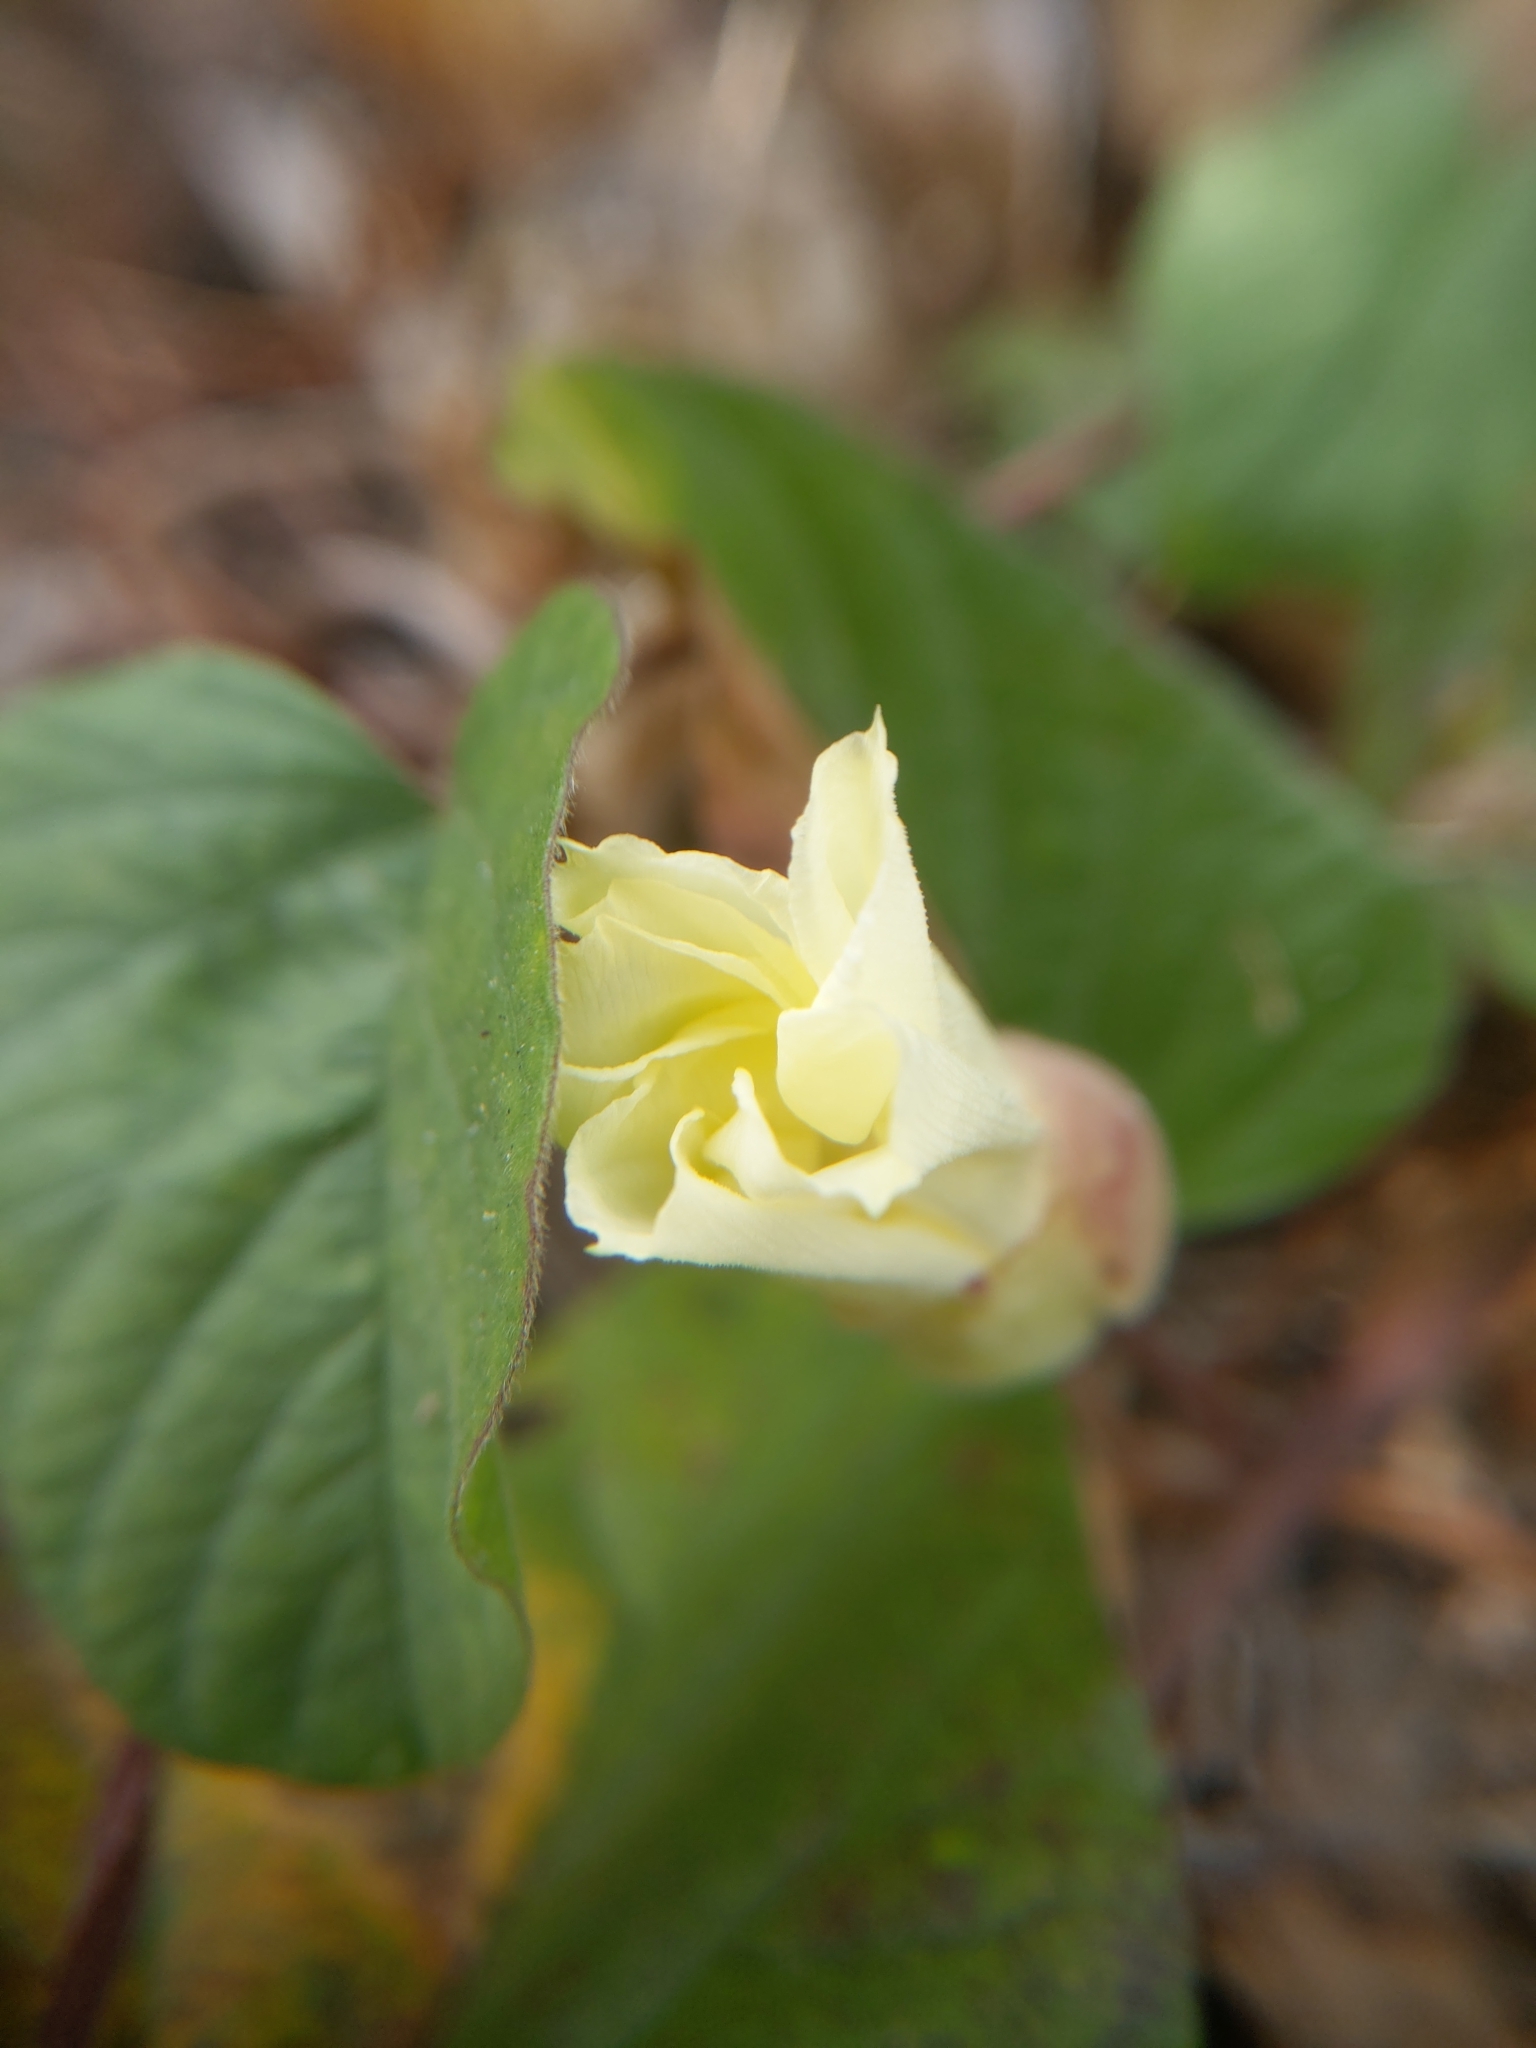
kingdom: Plantae
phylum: Tracheophyta
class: Magnoliopsida
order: Solanales
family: Convolvulaceae
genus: Operculina
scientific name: Operculina turpethum
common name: Transparent wood-rose
